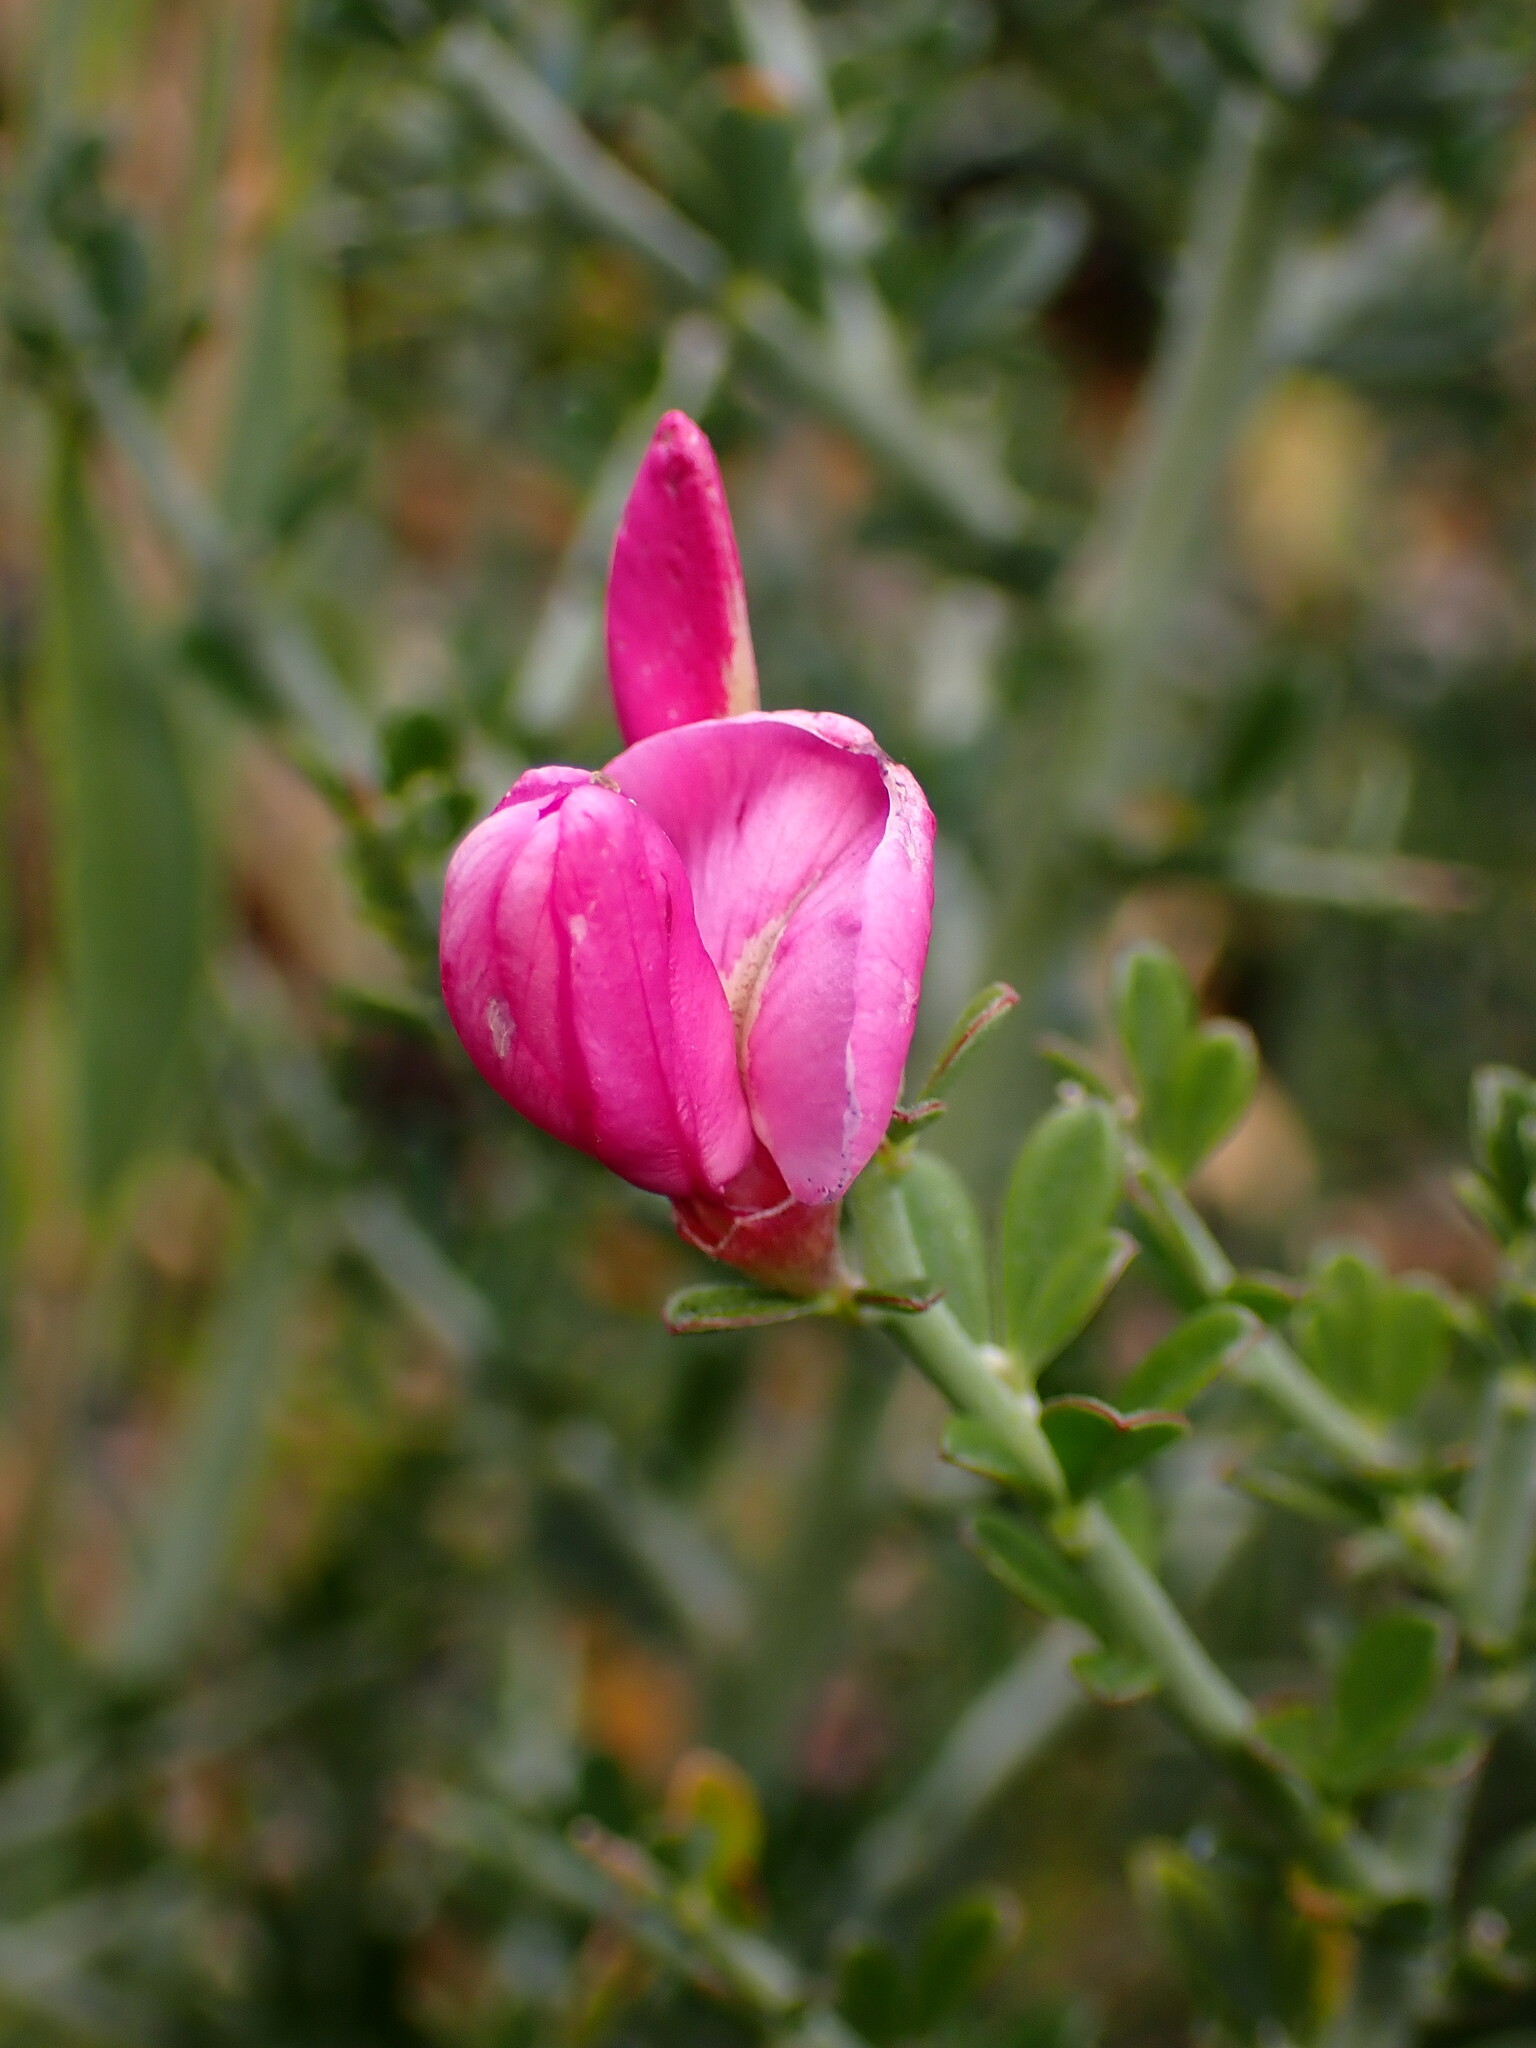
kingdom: Plantae
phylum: Tracheophyta
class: Magnoliopsida
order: Fabales
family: Fabaceae
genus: Pickeringia
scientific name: Pickeringia montana
